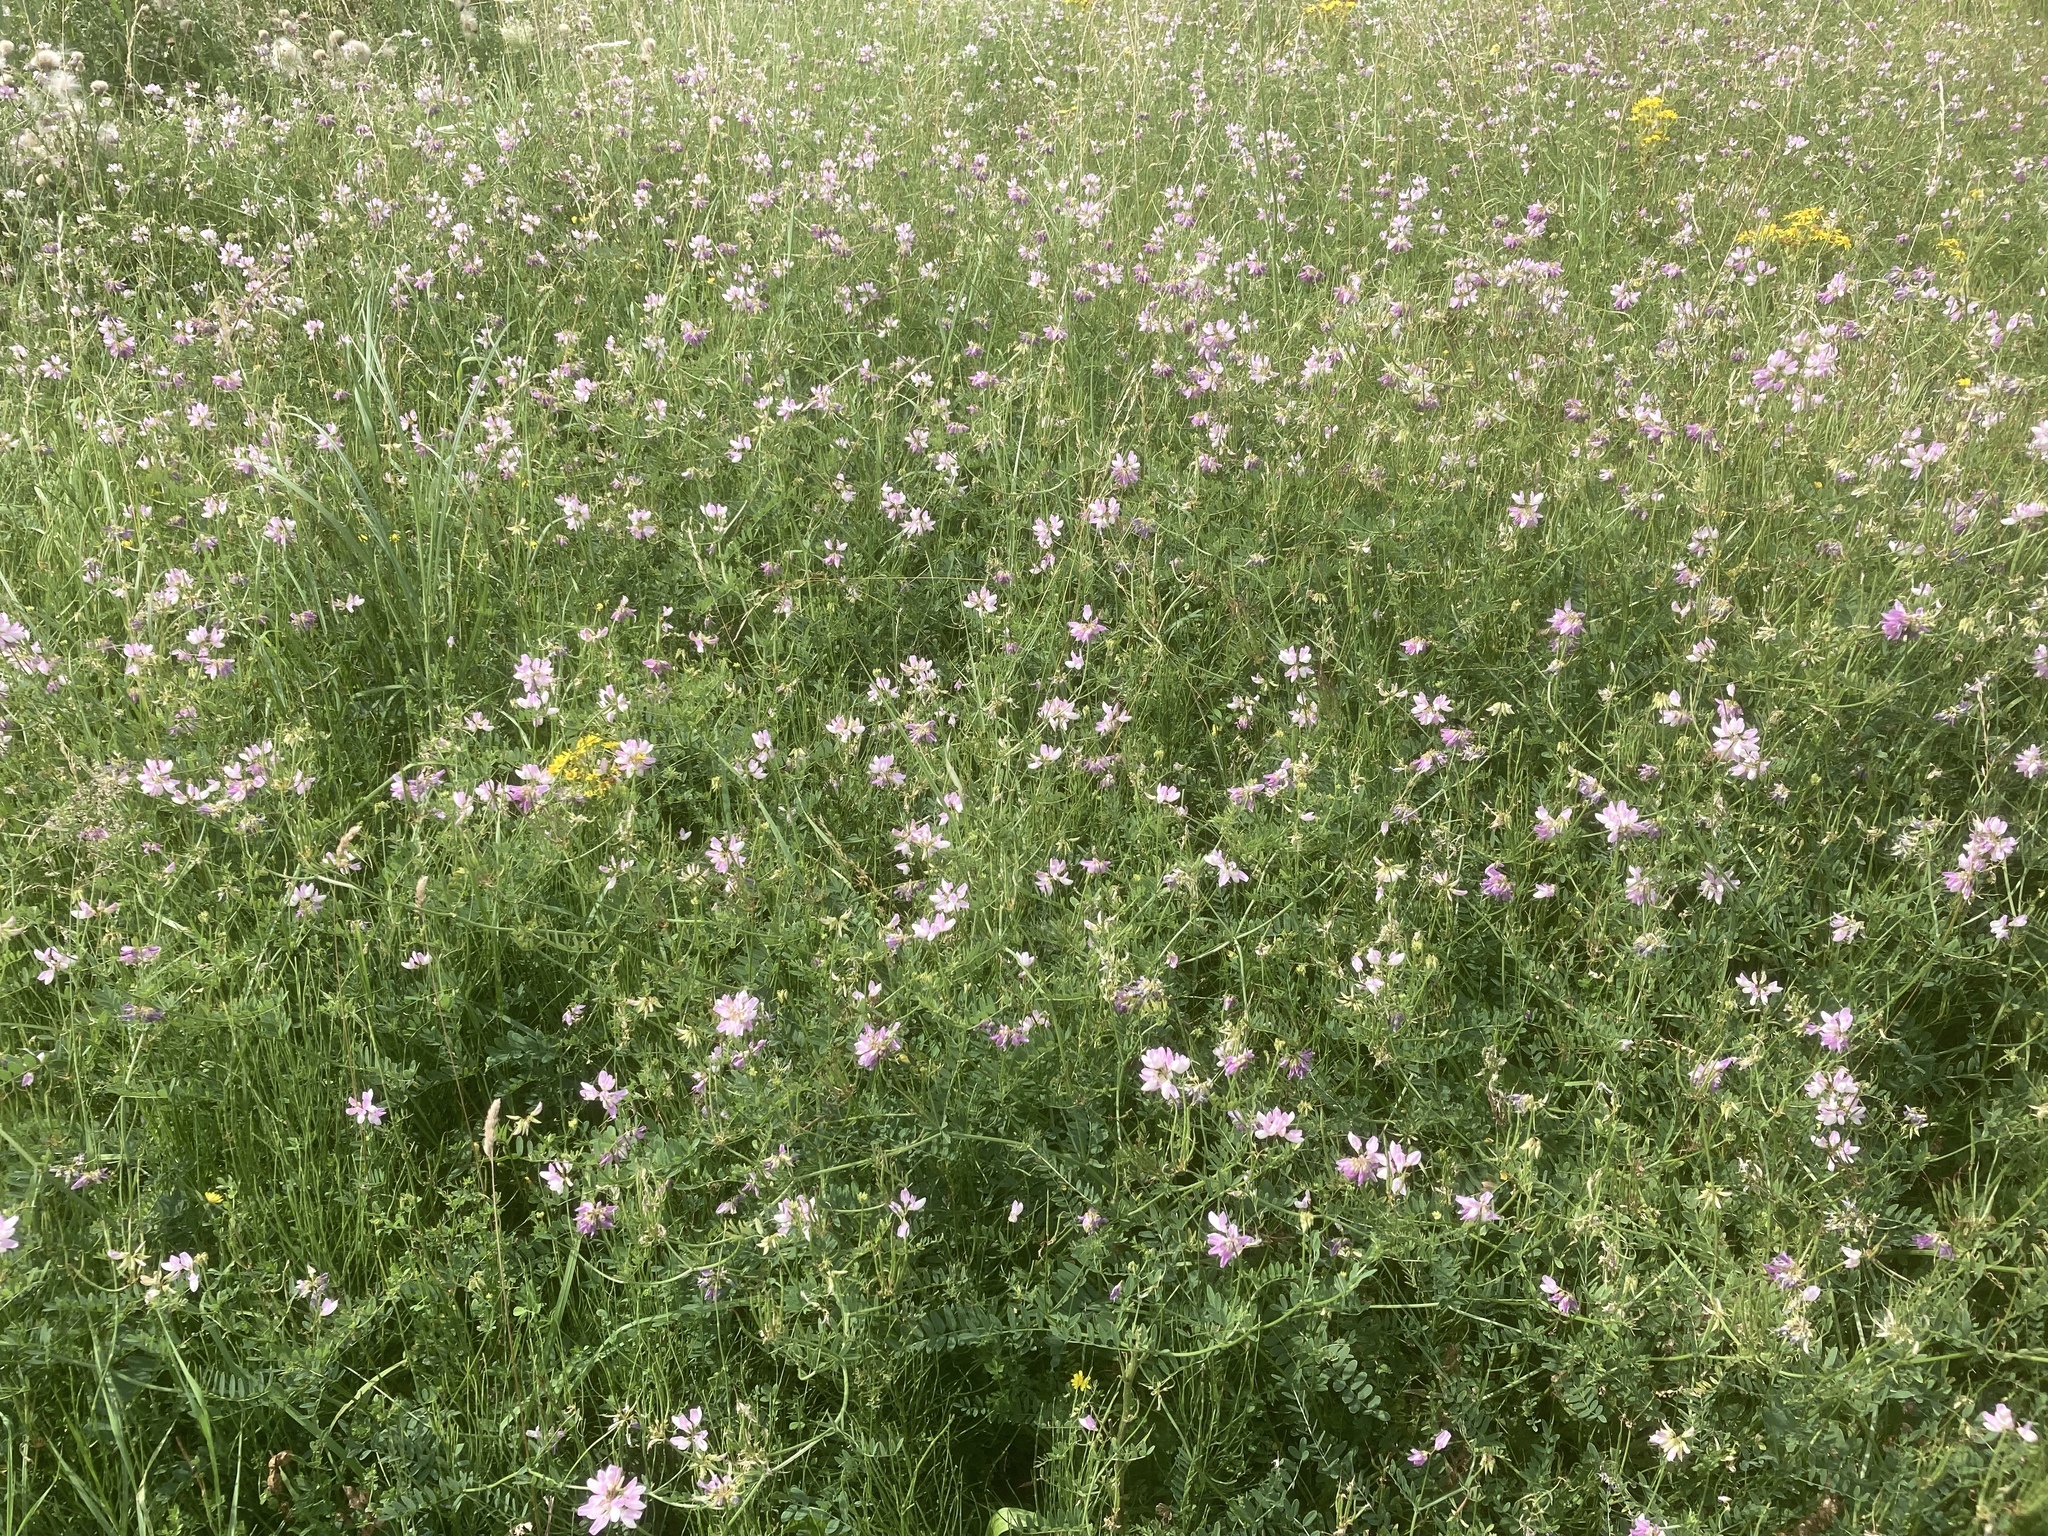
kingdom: Plantae
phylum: Tracheophyta
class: Magnoliopsida
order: Fabales
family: Fabaceae
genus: Coronilla
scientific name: Coronilla varia
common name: Crownvetch
